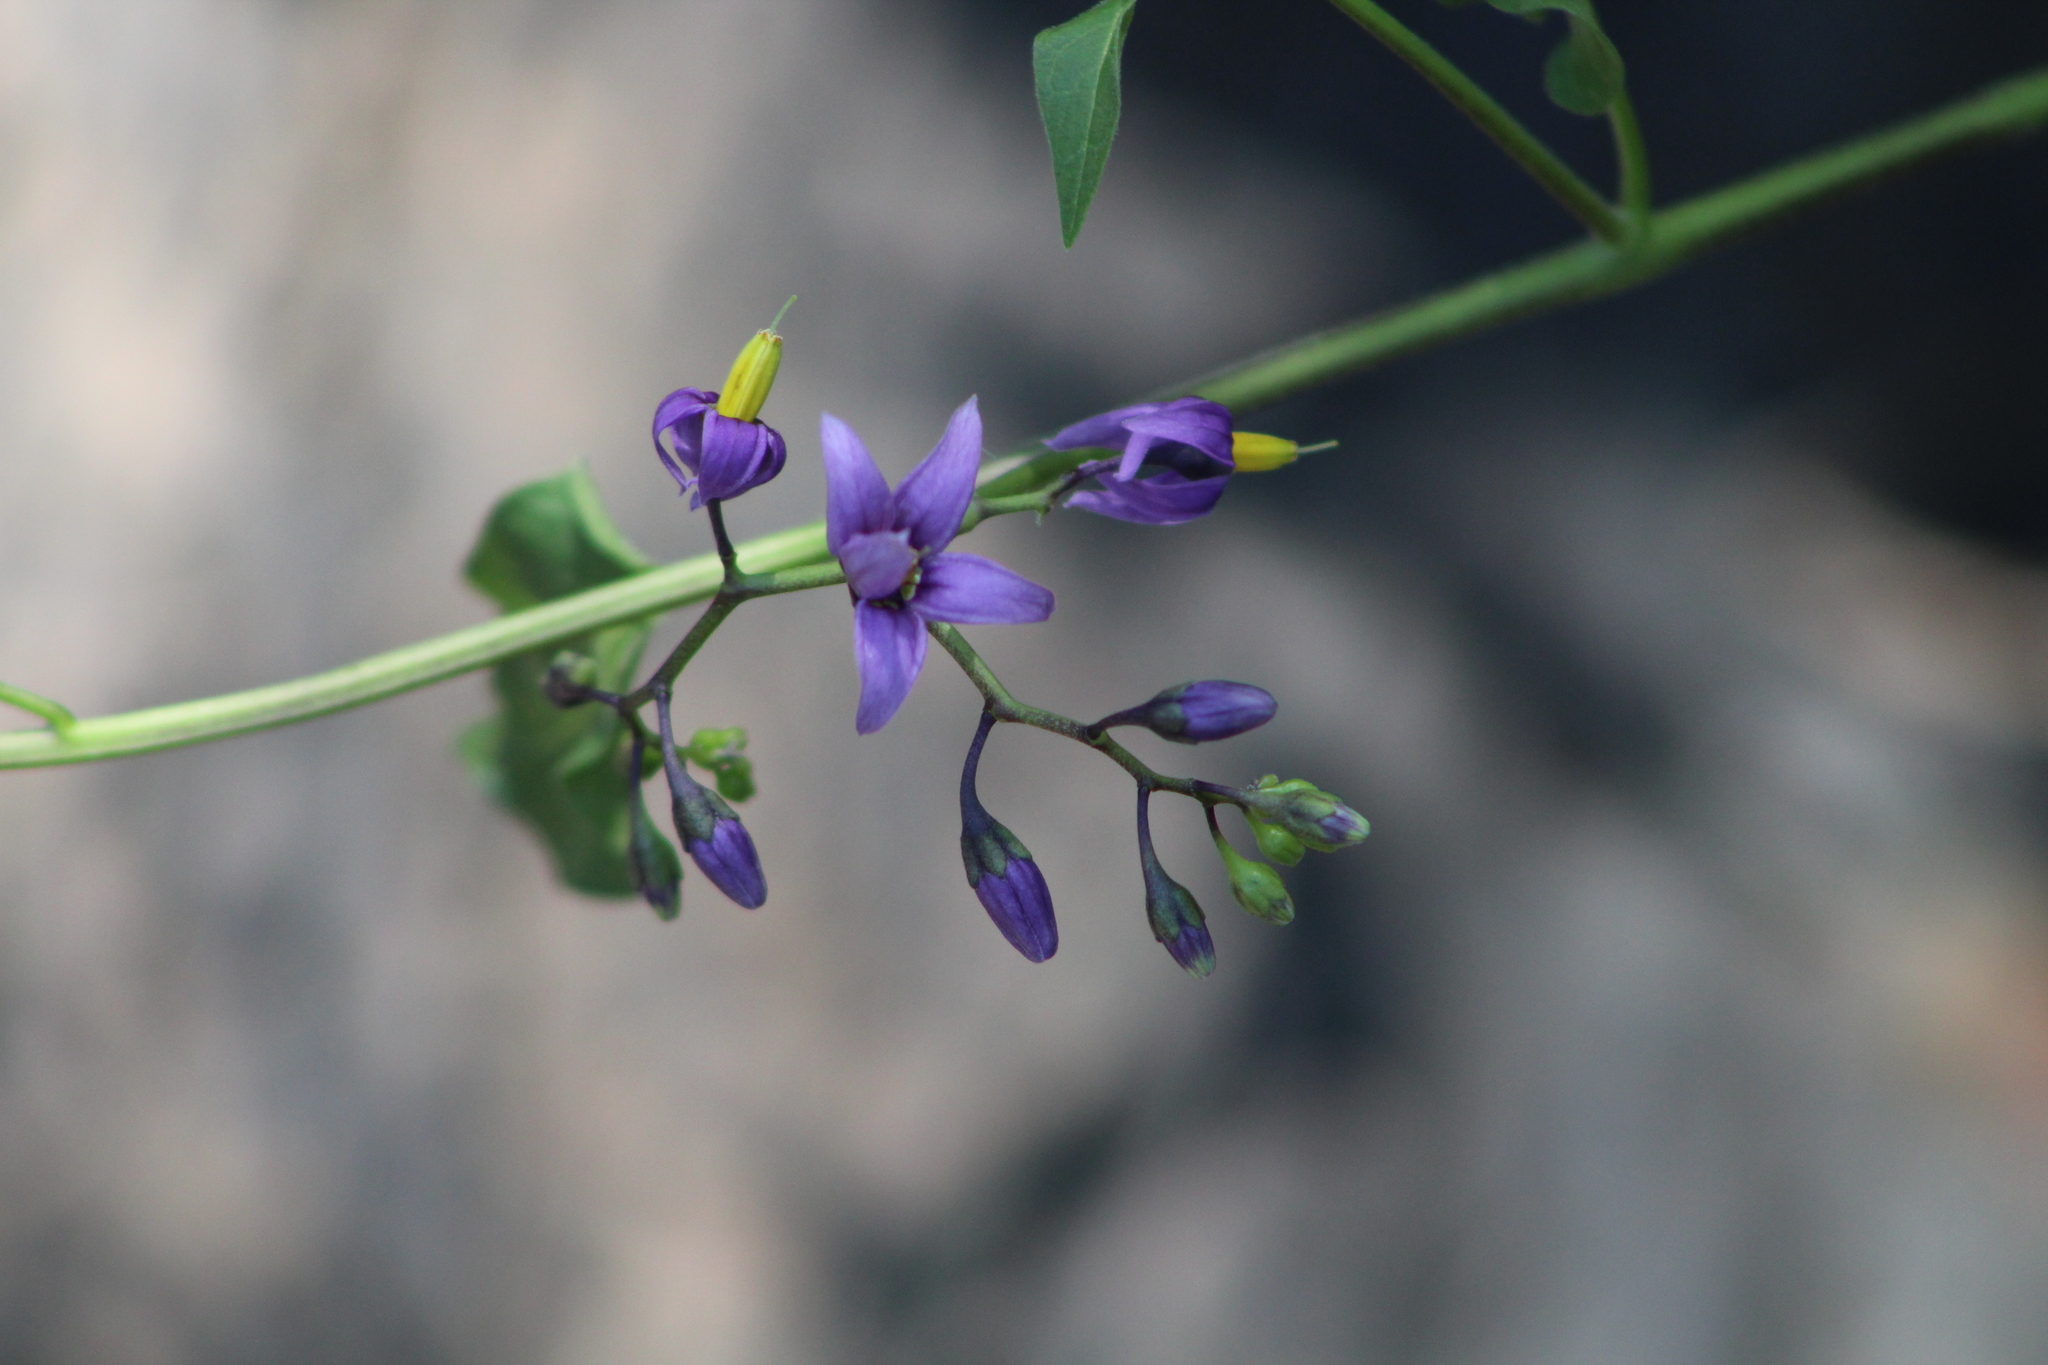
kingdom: Plantae
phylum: Tracheophyta
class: Magnoliopsida
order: Solanales
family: Solanaceae
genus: Solanum
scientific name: Solanum dulcamara
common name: Climbing nightshade
